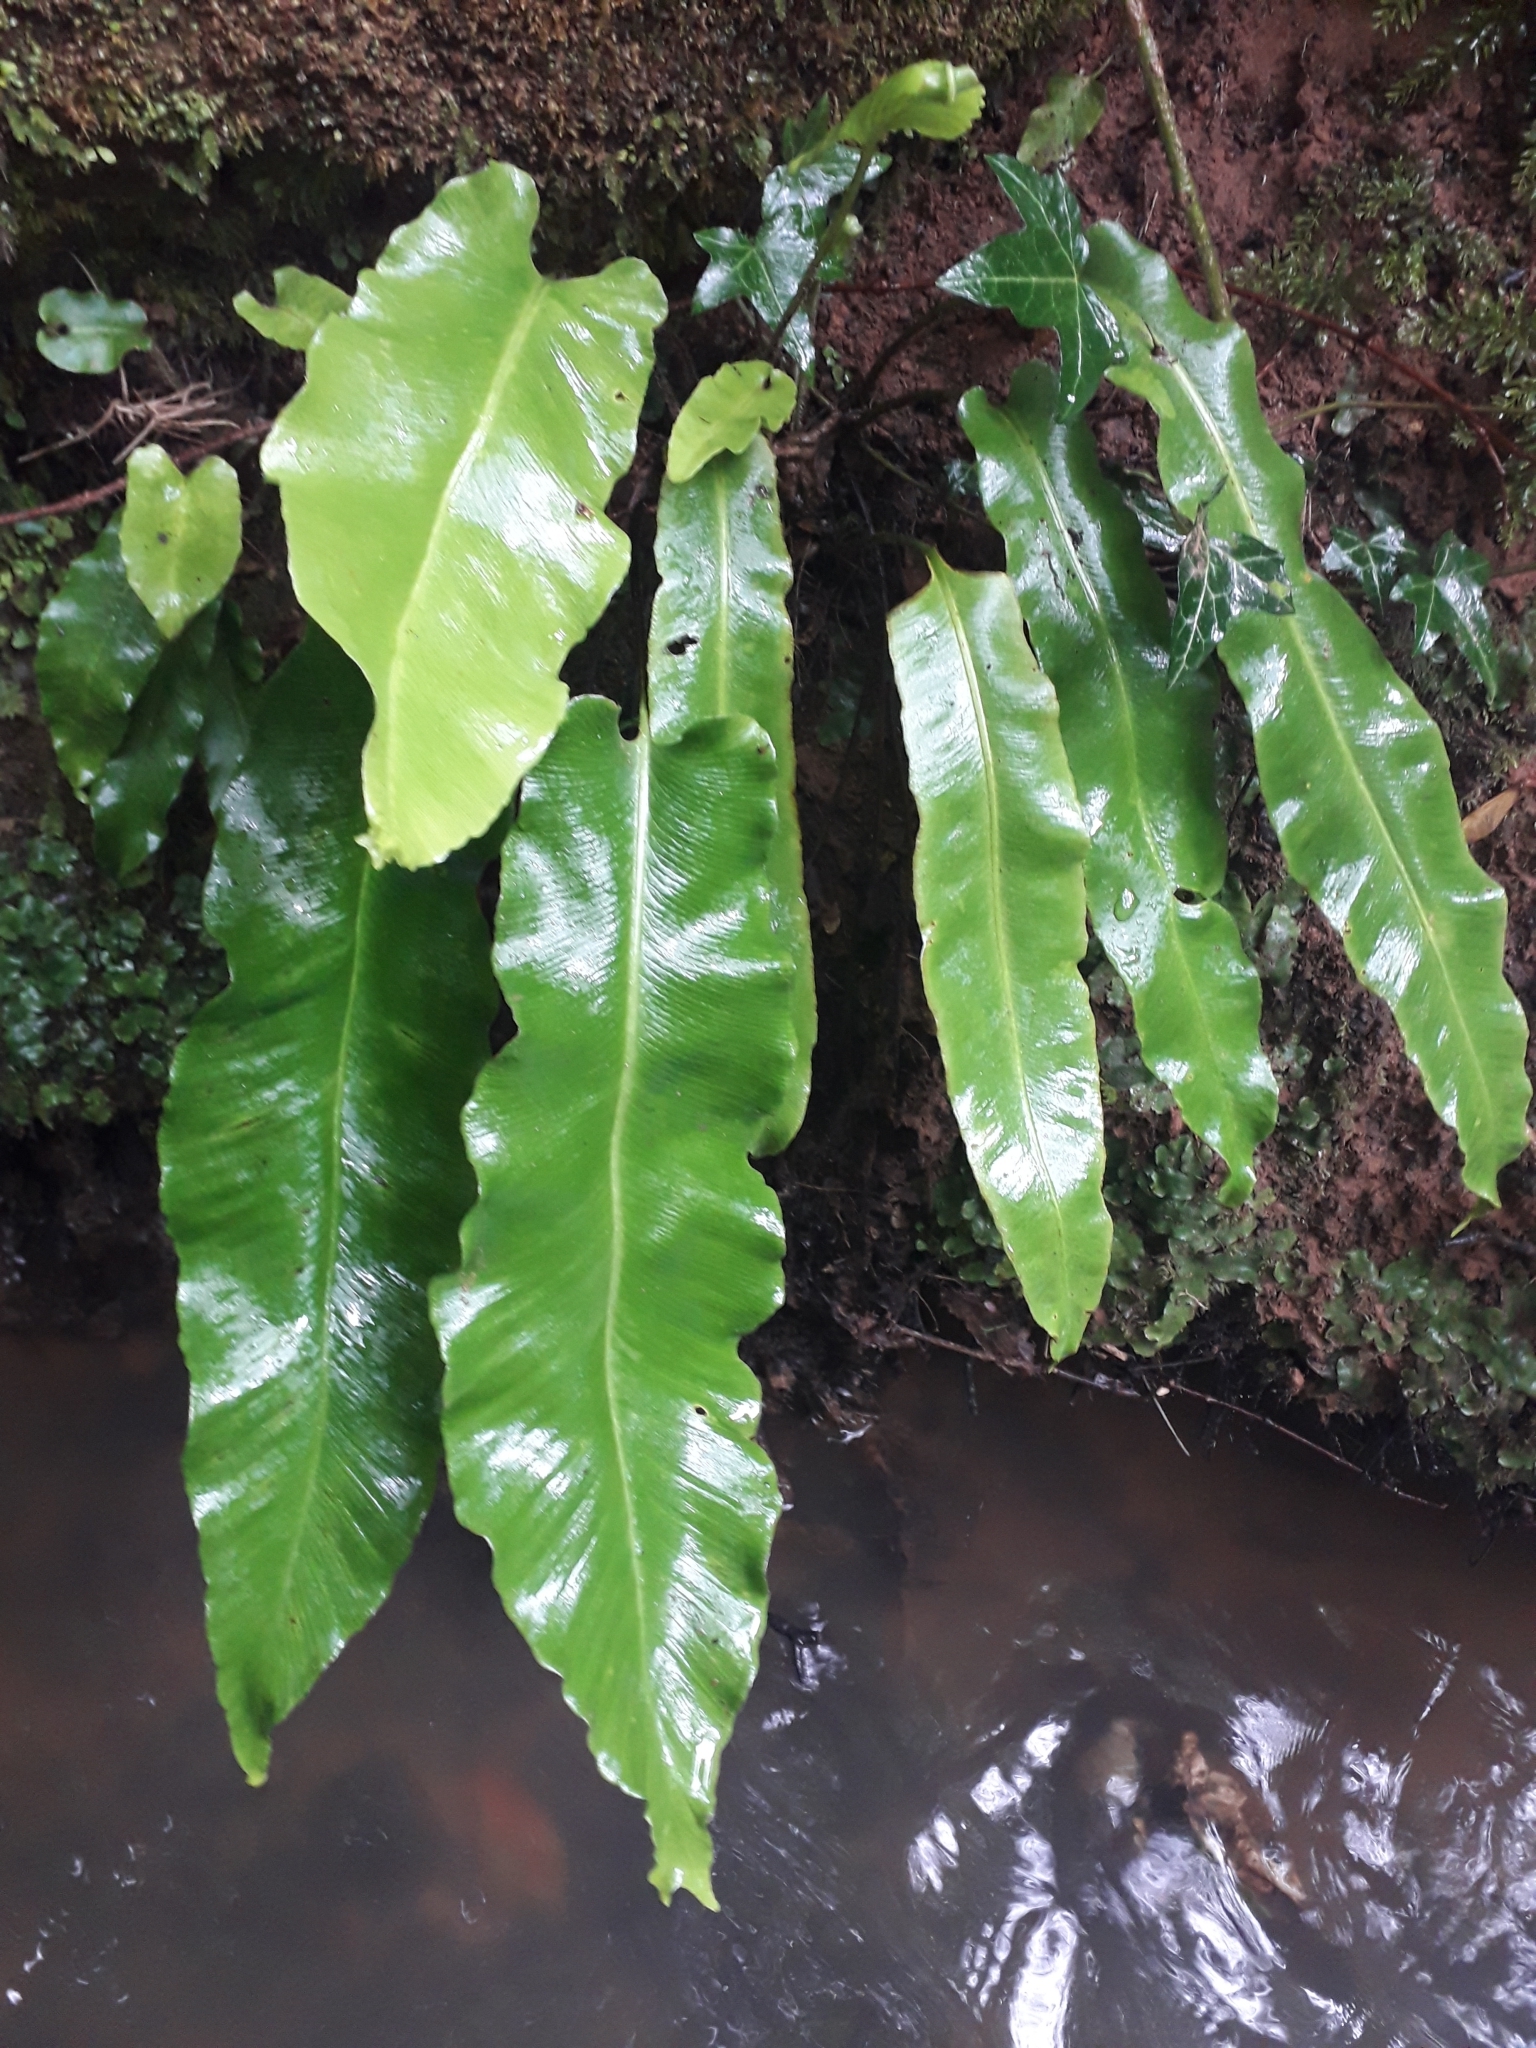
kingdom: Plantae
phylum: Tracheophyta
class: Polypodiopsida
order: Polypodiales
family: Aspleniaceae
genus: Asplenium
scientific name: Asplenium scolopendrium
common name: Hart's-tongue fern
